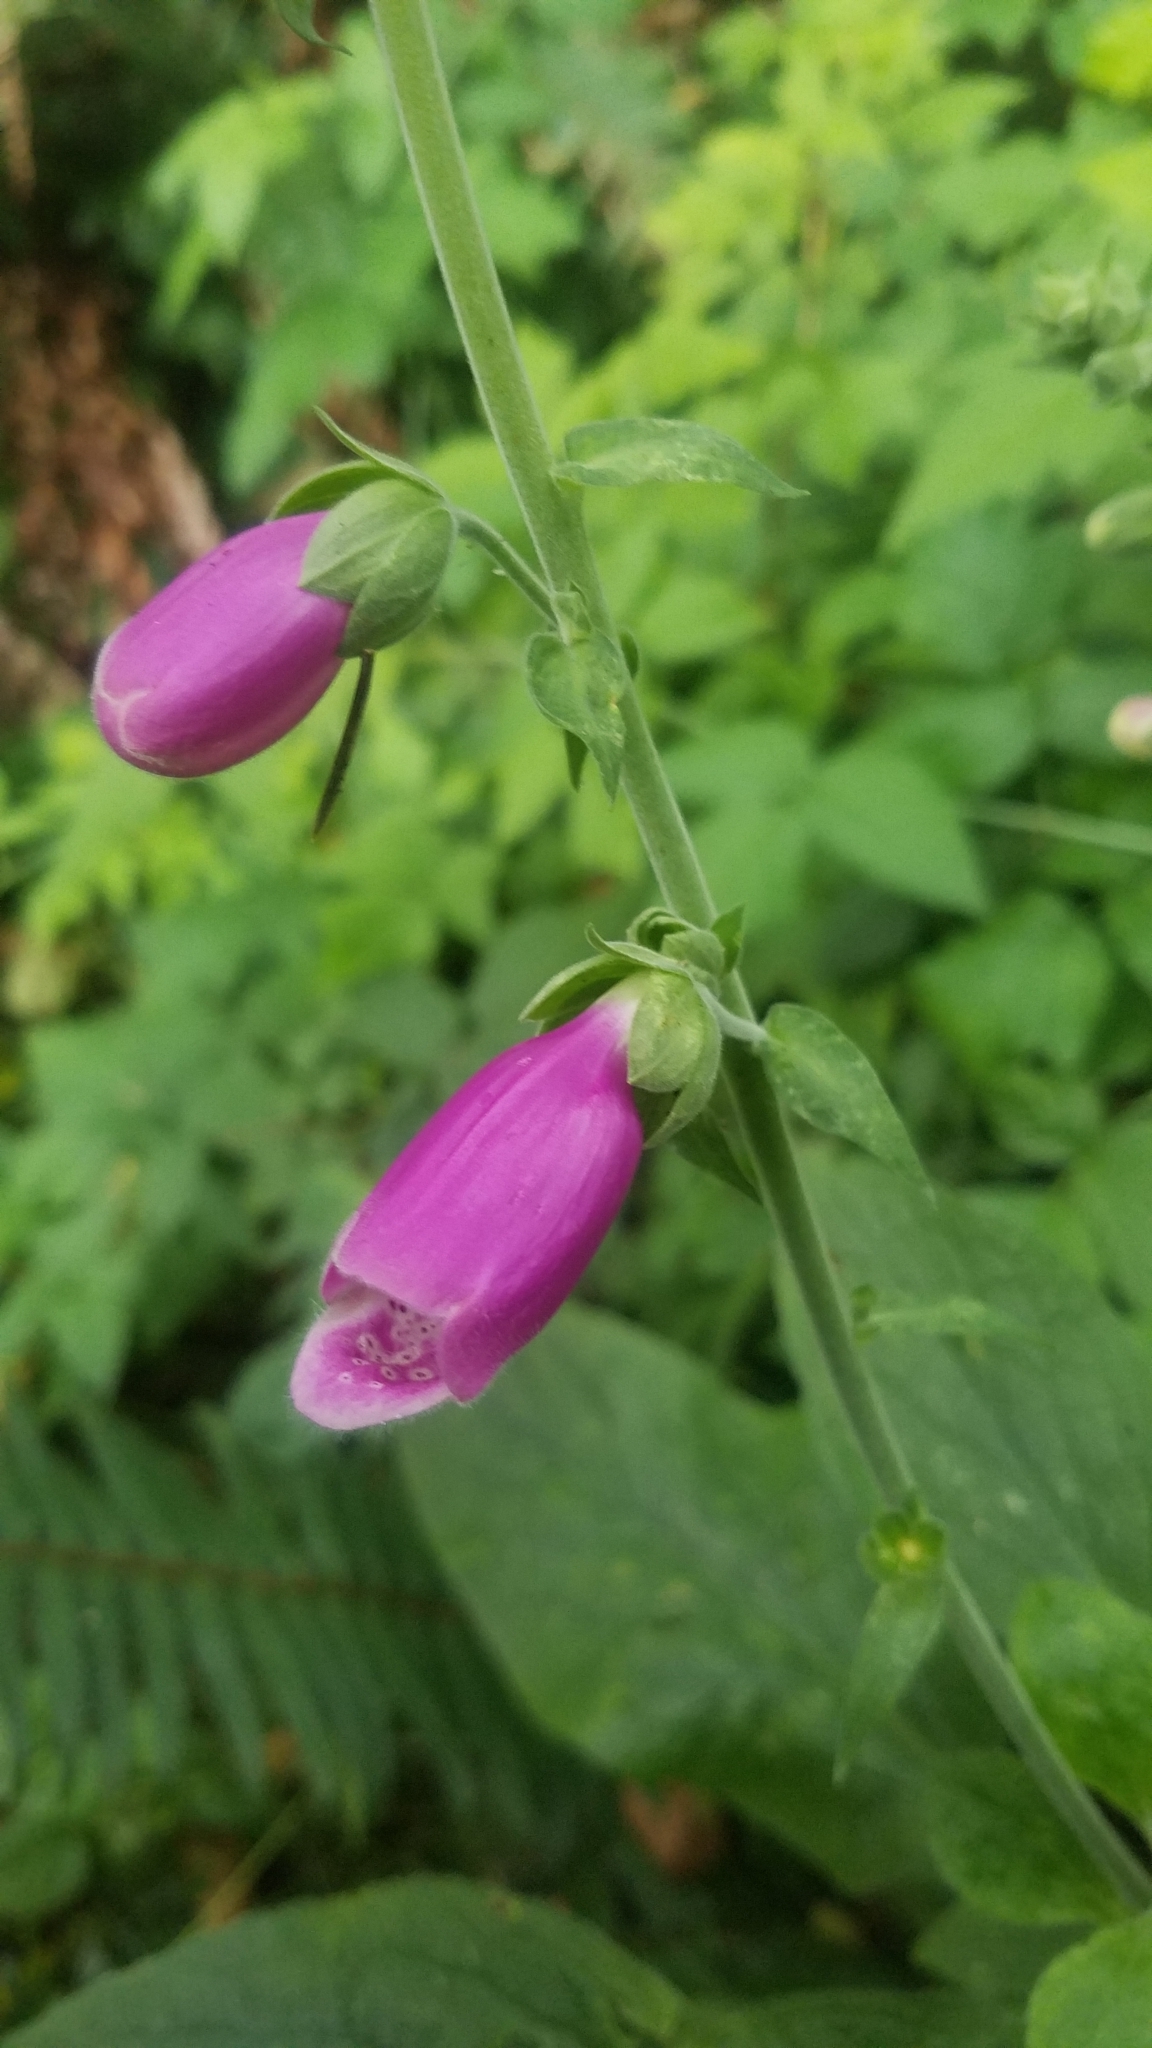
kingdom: Plantae
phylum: Tracheophyta
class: Magnoliopsida
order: Lamiales
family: Plantaginaceae
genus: Digitalis
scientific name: Digitalis purpurea
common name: Foxglove
